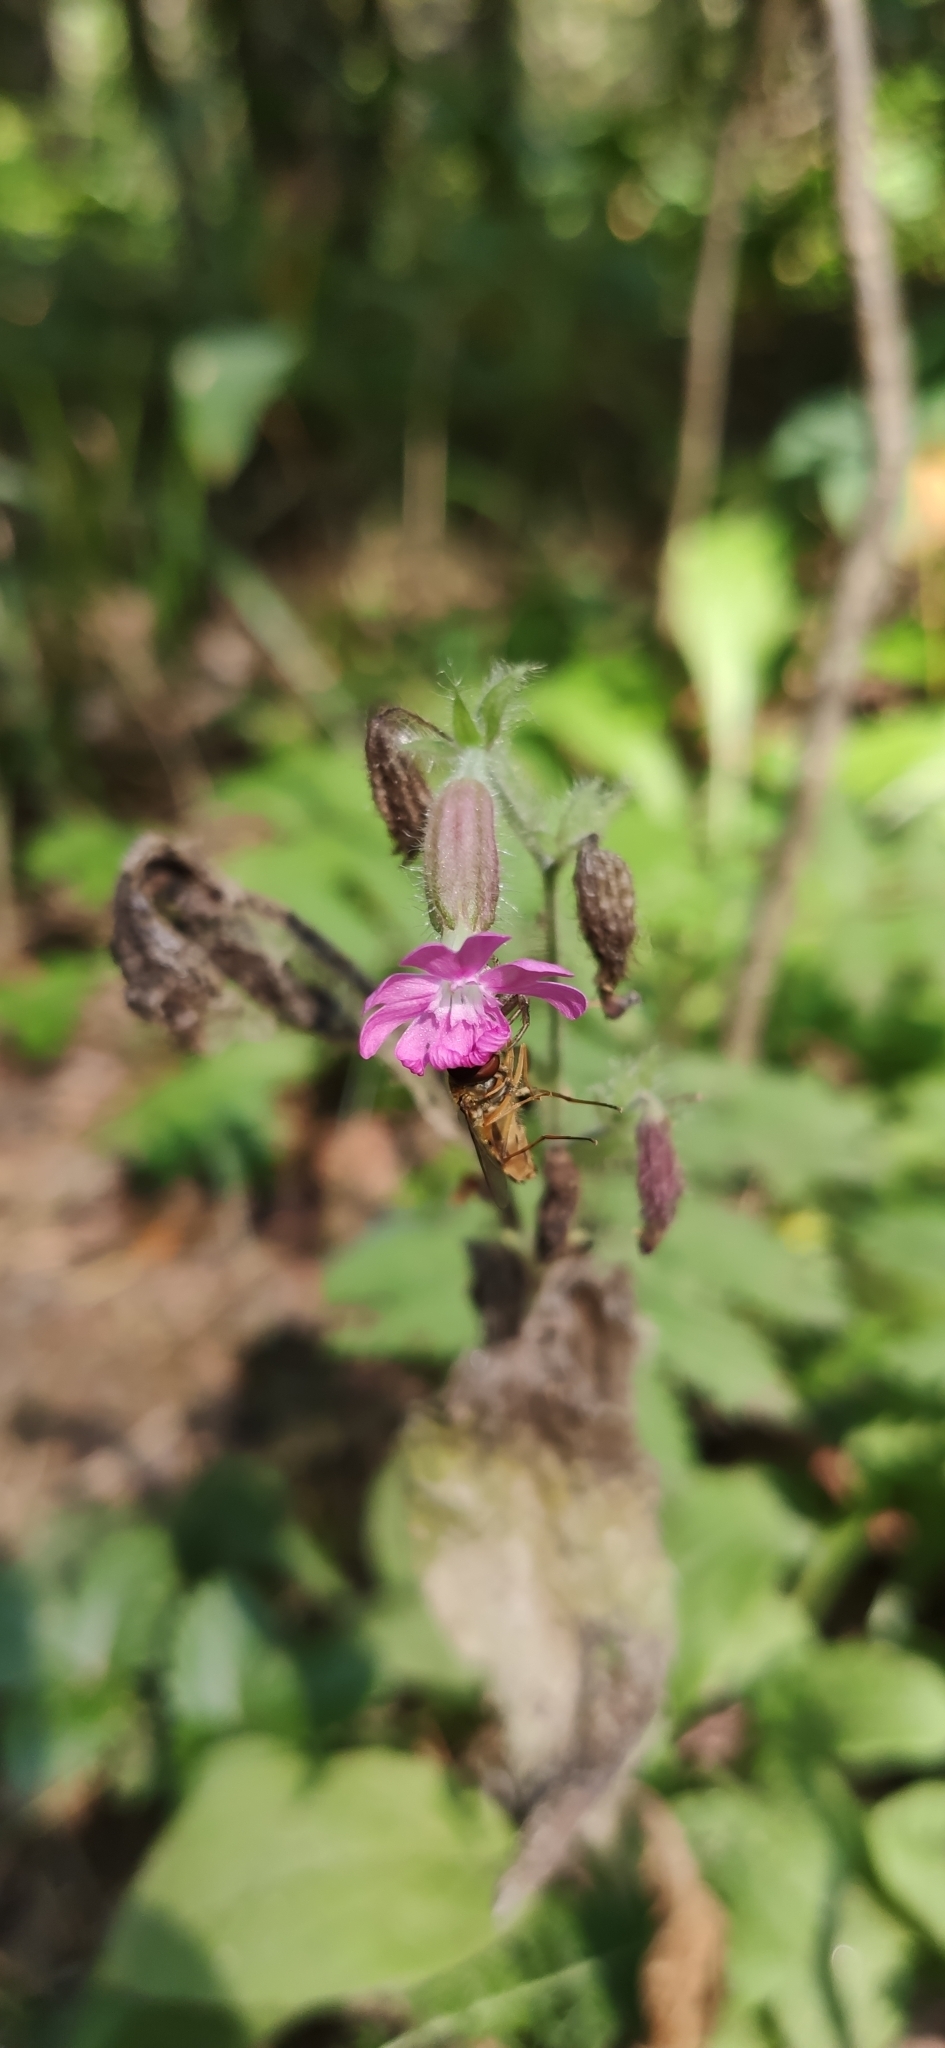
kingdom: Plantae
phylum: Tracheophyta
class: Magnoliopsida
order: Caryophyllales
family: Caryophyllaceae
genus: Silene
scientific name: Silene dioica
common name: Red campion
